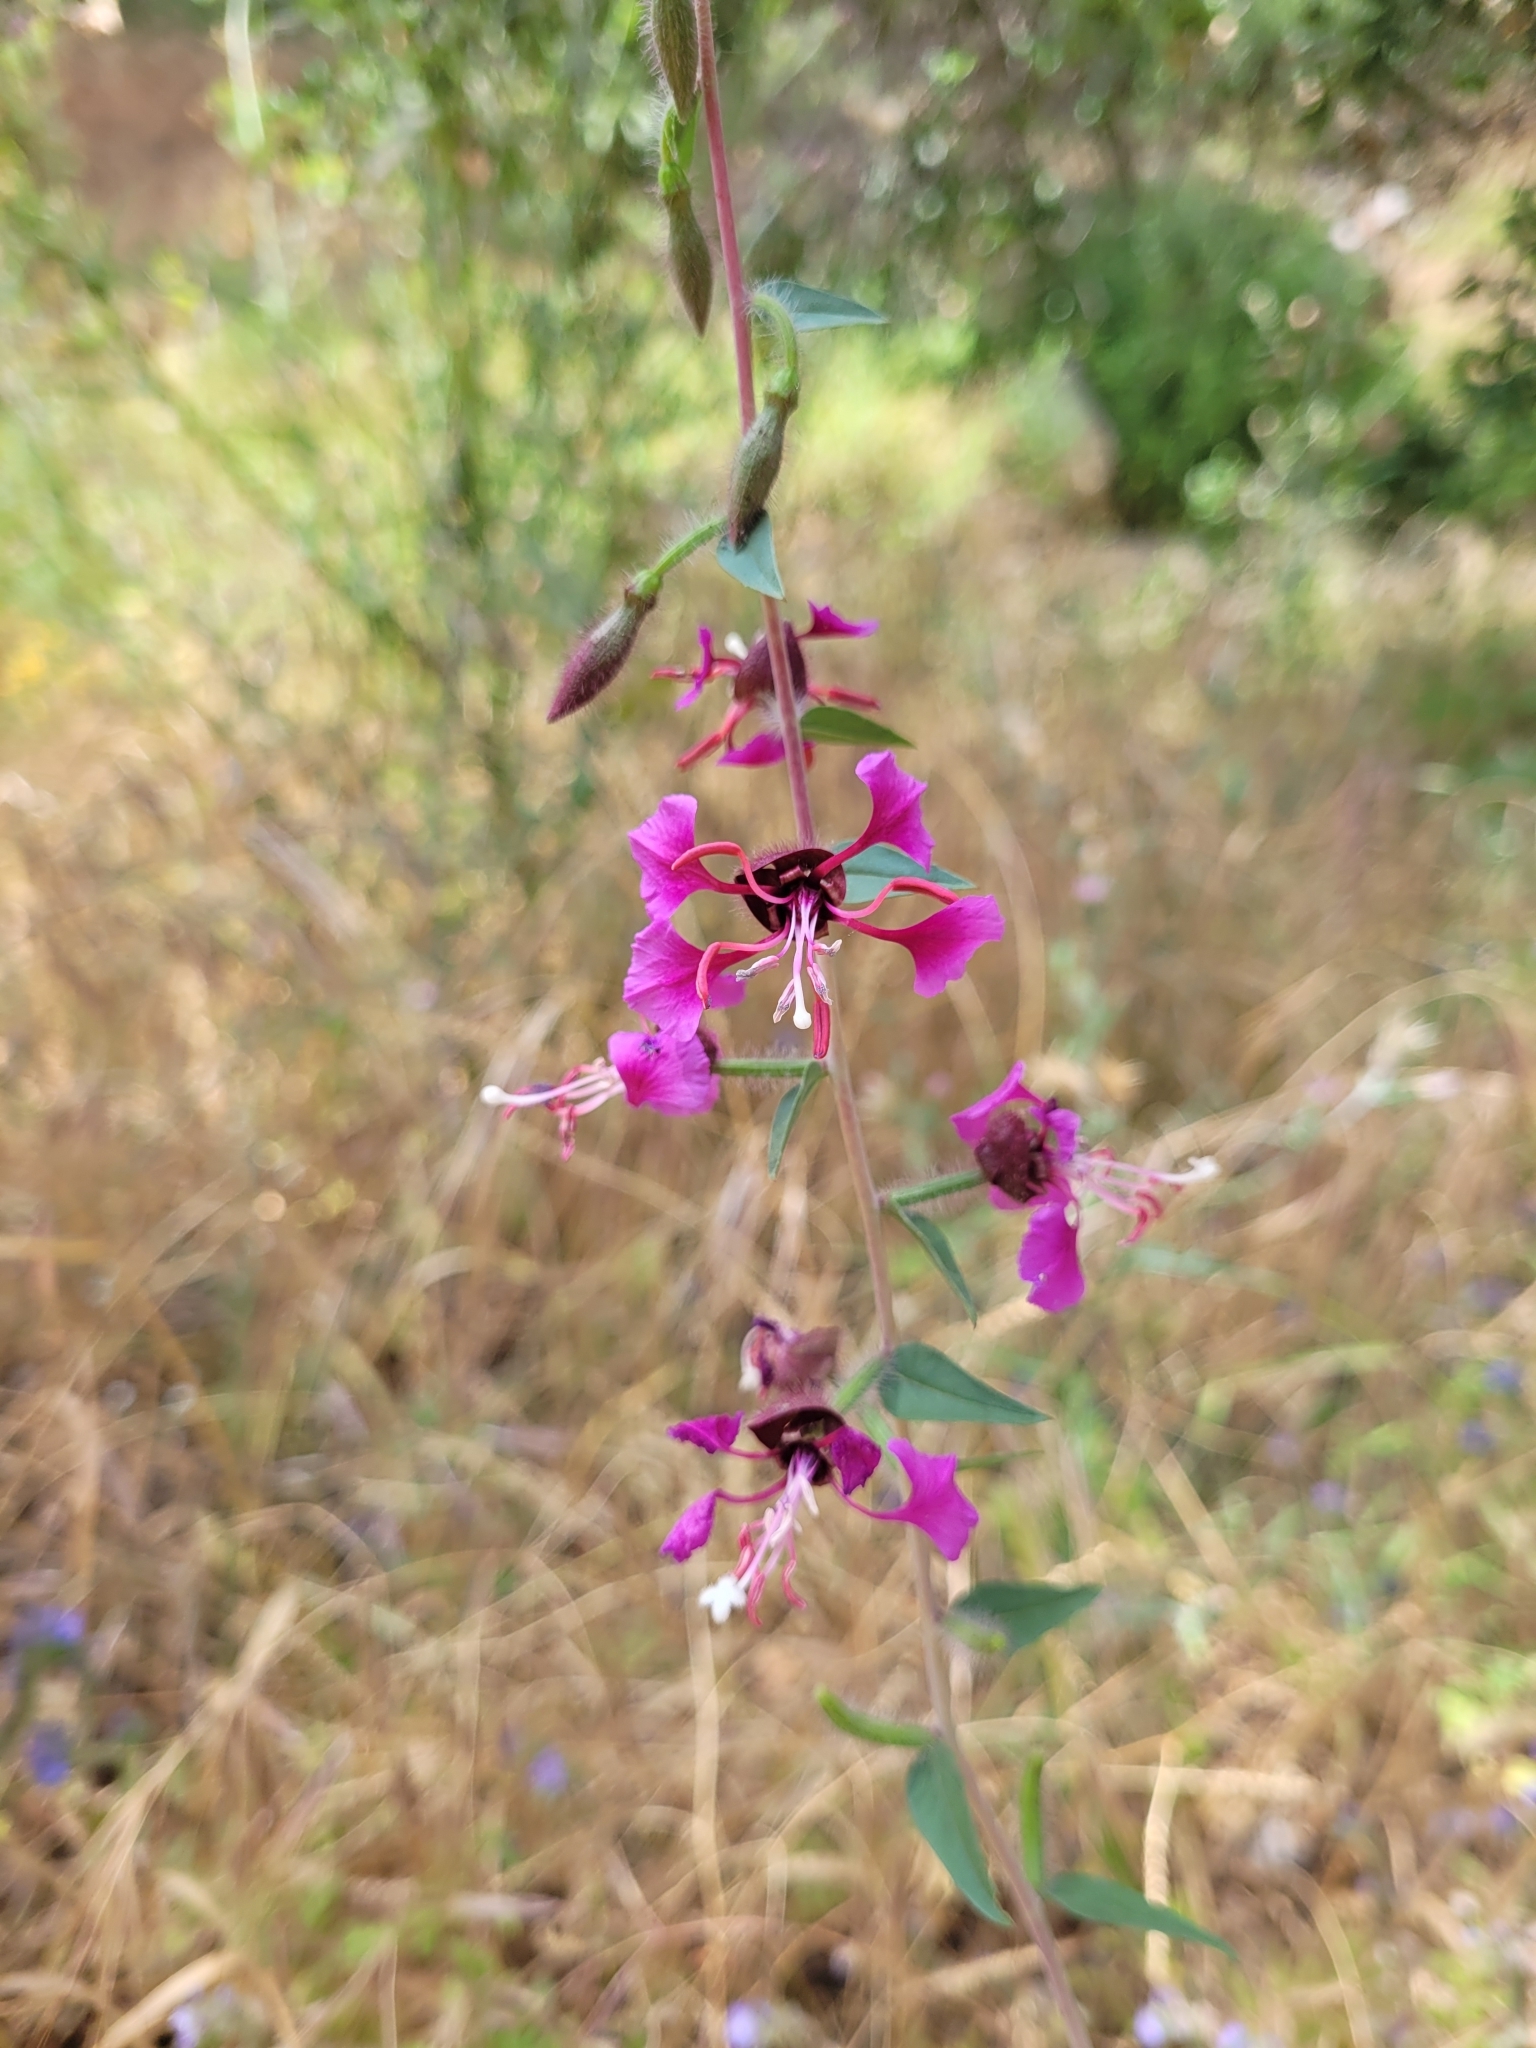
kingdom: Plantae
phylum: Tracheophyta
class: Magnoliopsida
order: Myrtales
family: Onagraceae
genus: Clarkia
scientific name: Clarkia unguiculata
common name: Clarkia
